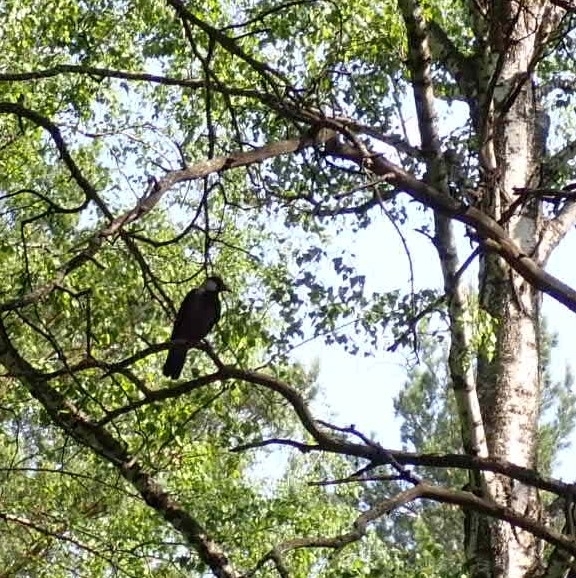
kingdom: Animalia
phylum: Chordata
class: Aves
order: Passeriformes
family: Corvidae
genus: Corvus
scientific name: Corvus cornix
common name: Hooded crow
